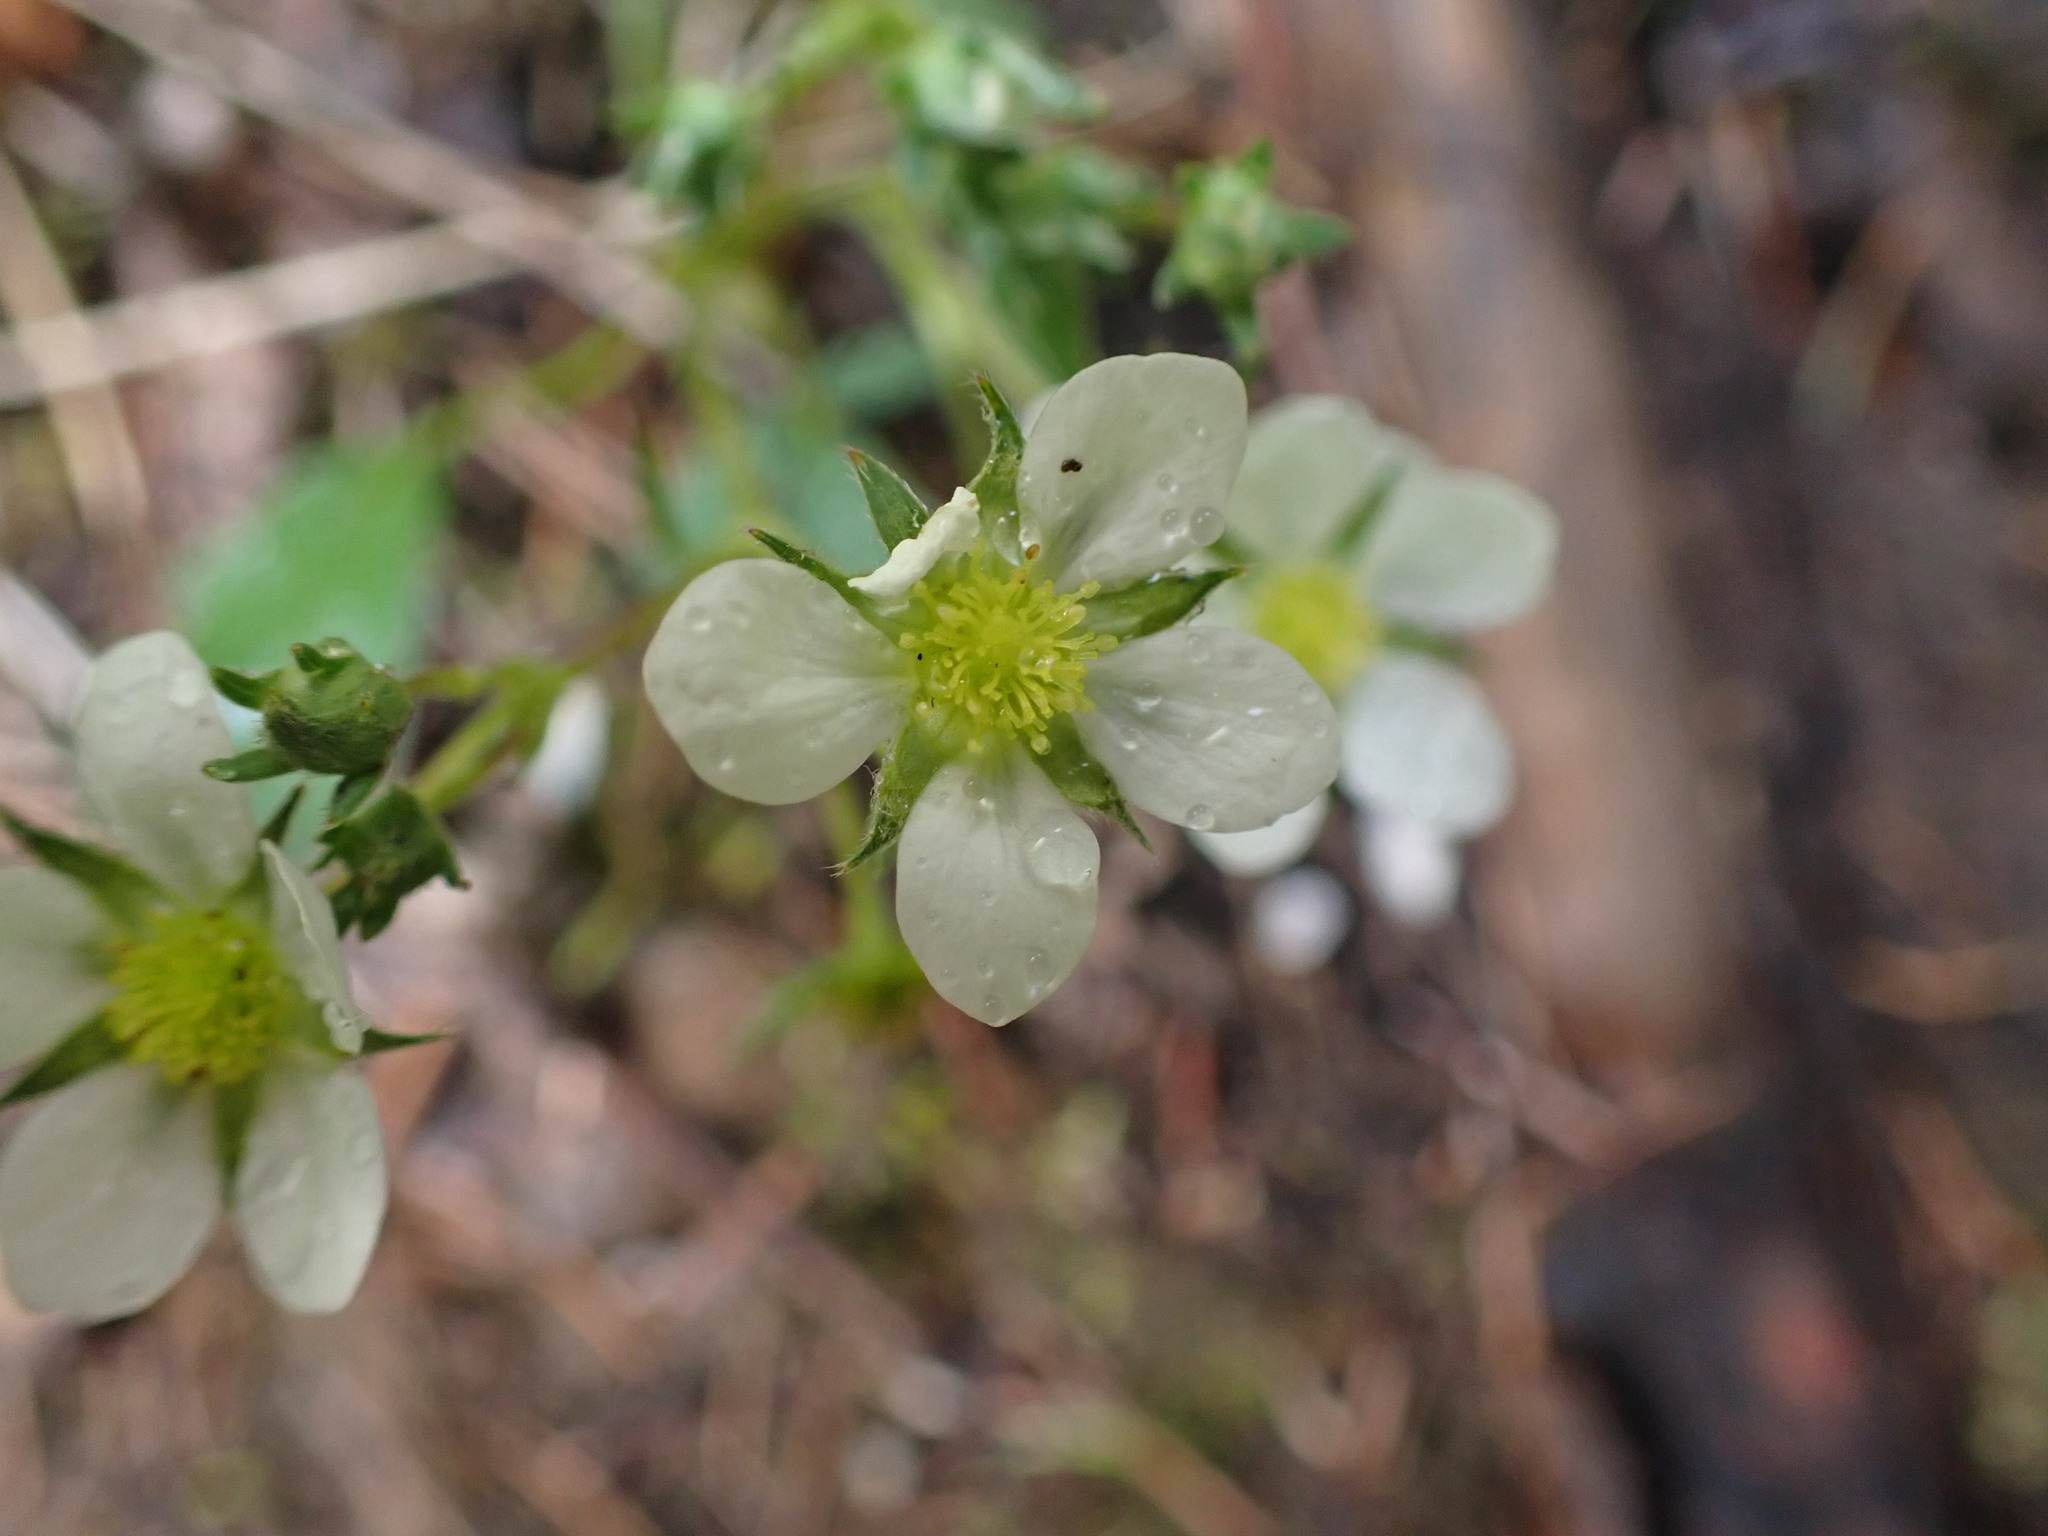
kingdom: Plantae
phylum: Tracheophyta
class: Magnoliopsida
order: Rosales
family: Rosaceae
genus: Fragaria
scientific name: Fragaria virginiana
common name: Thickleaved wild strawberry
